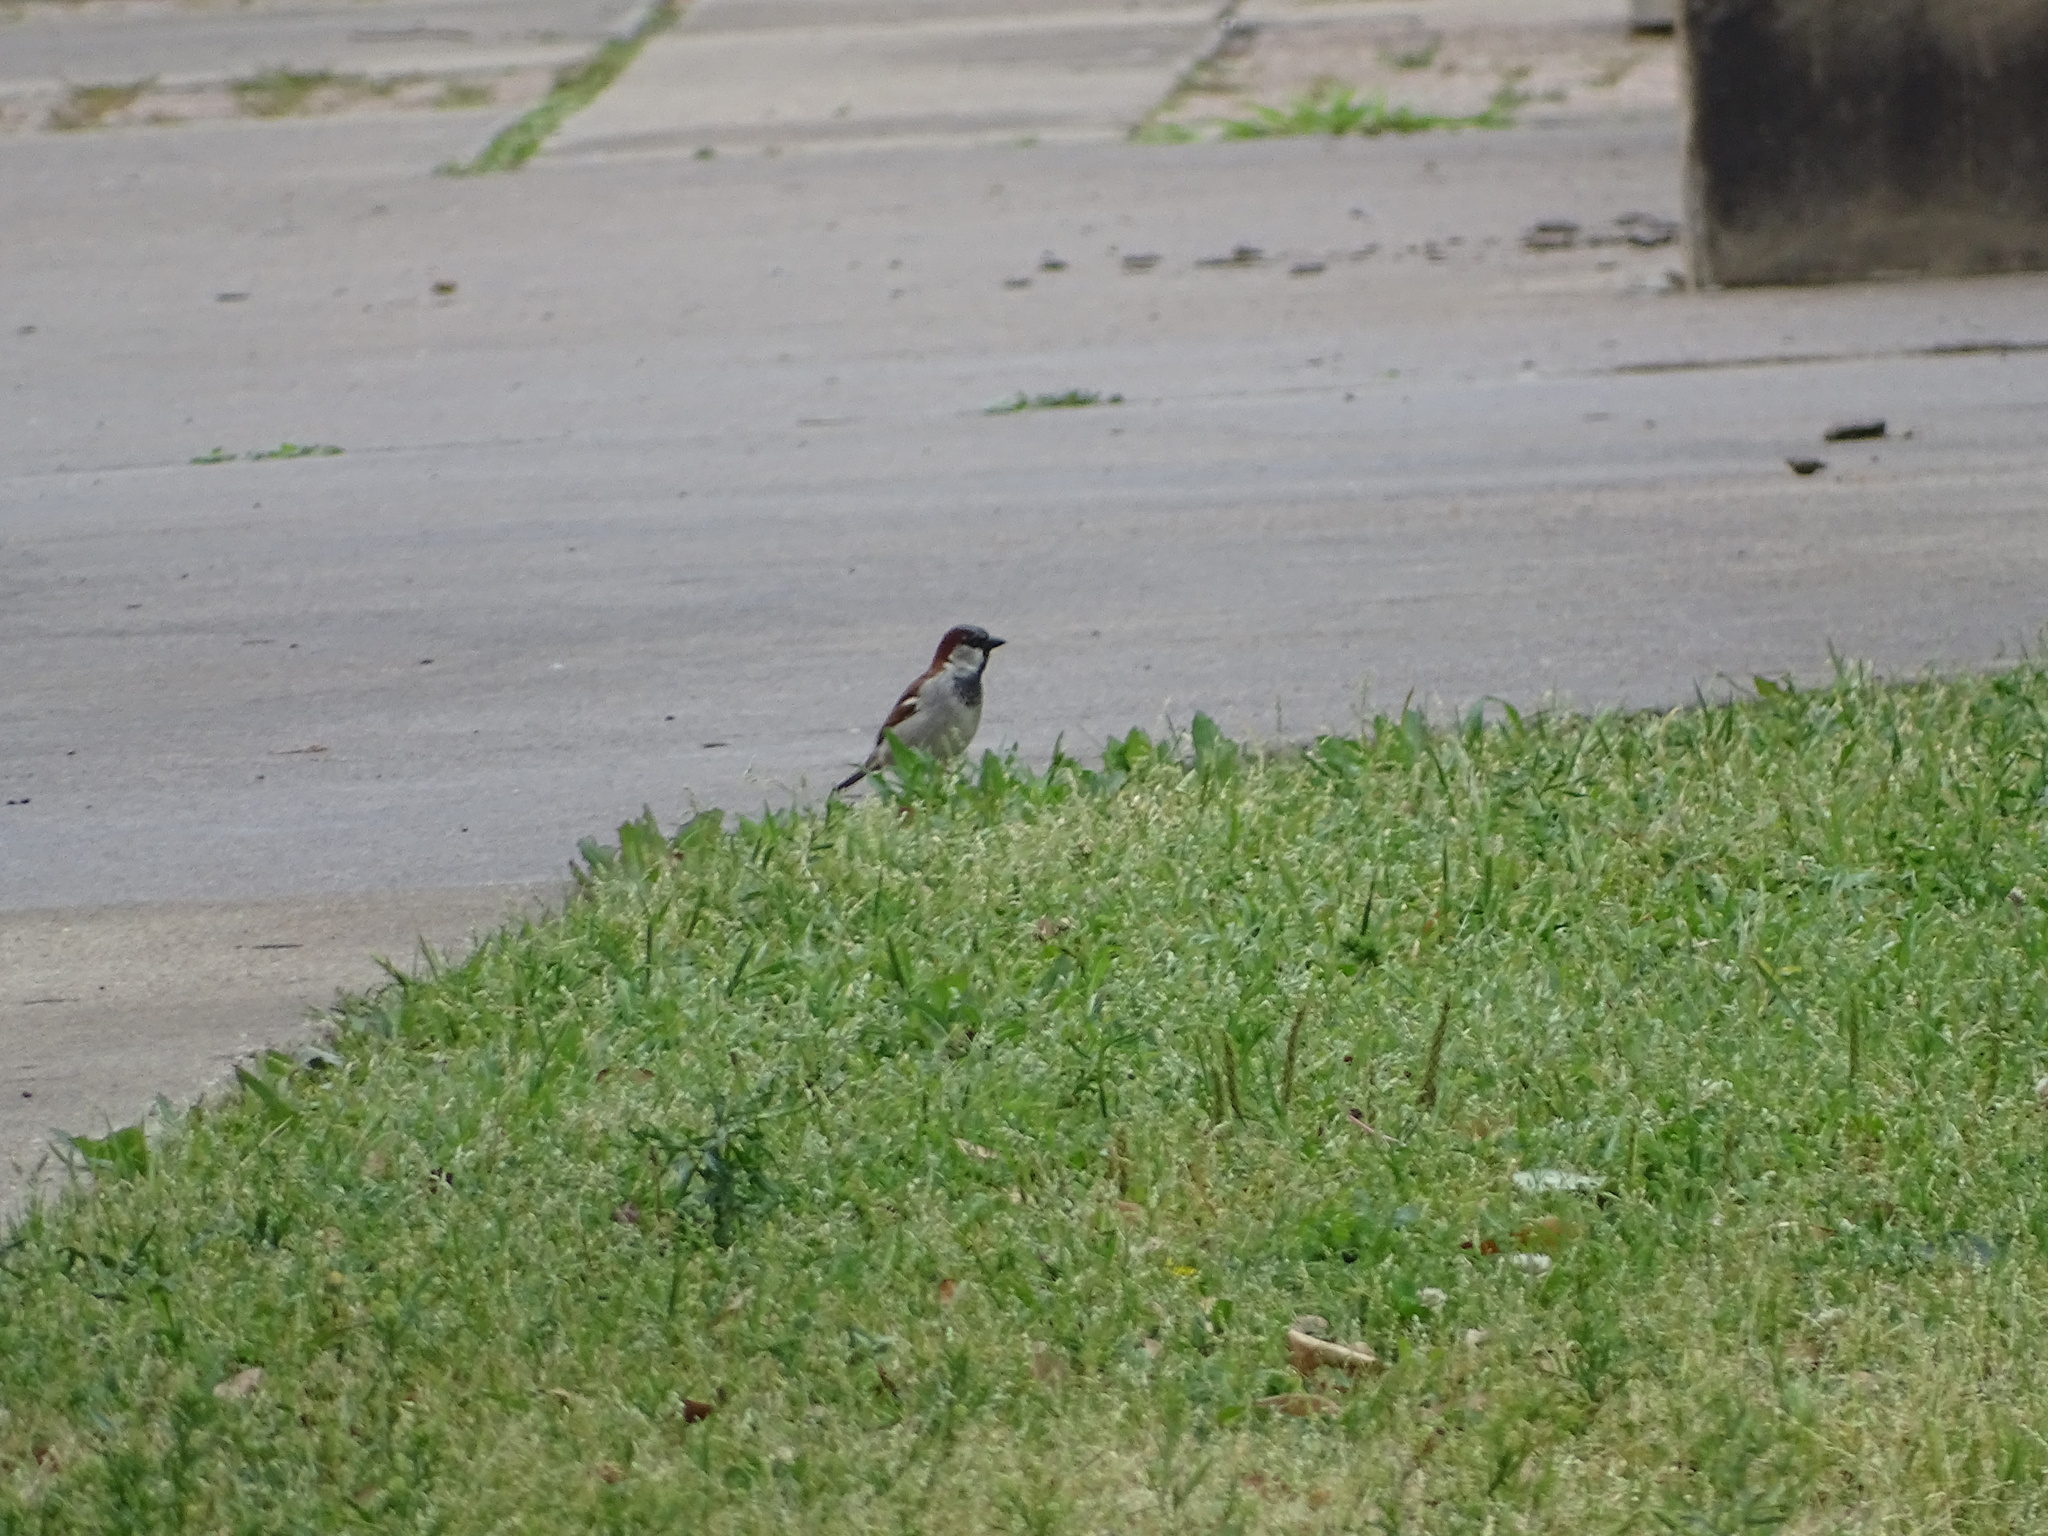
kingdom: Animalia
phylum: Chordata
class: Aves
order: Passeriformes
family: Passeridae
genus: Passer
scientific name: Passer domesticus
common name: House sparrow
